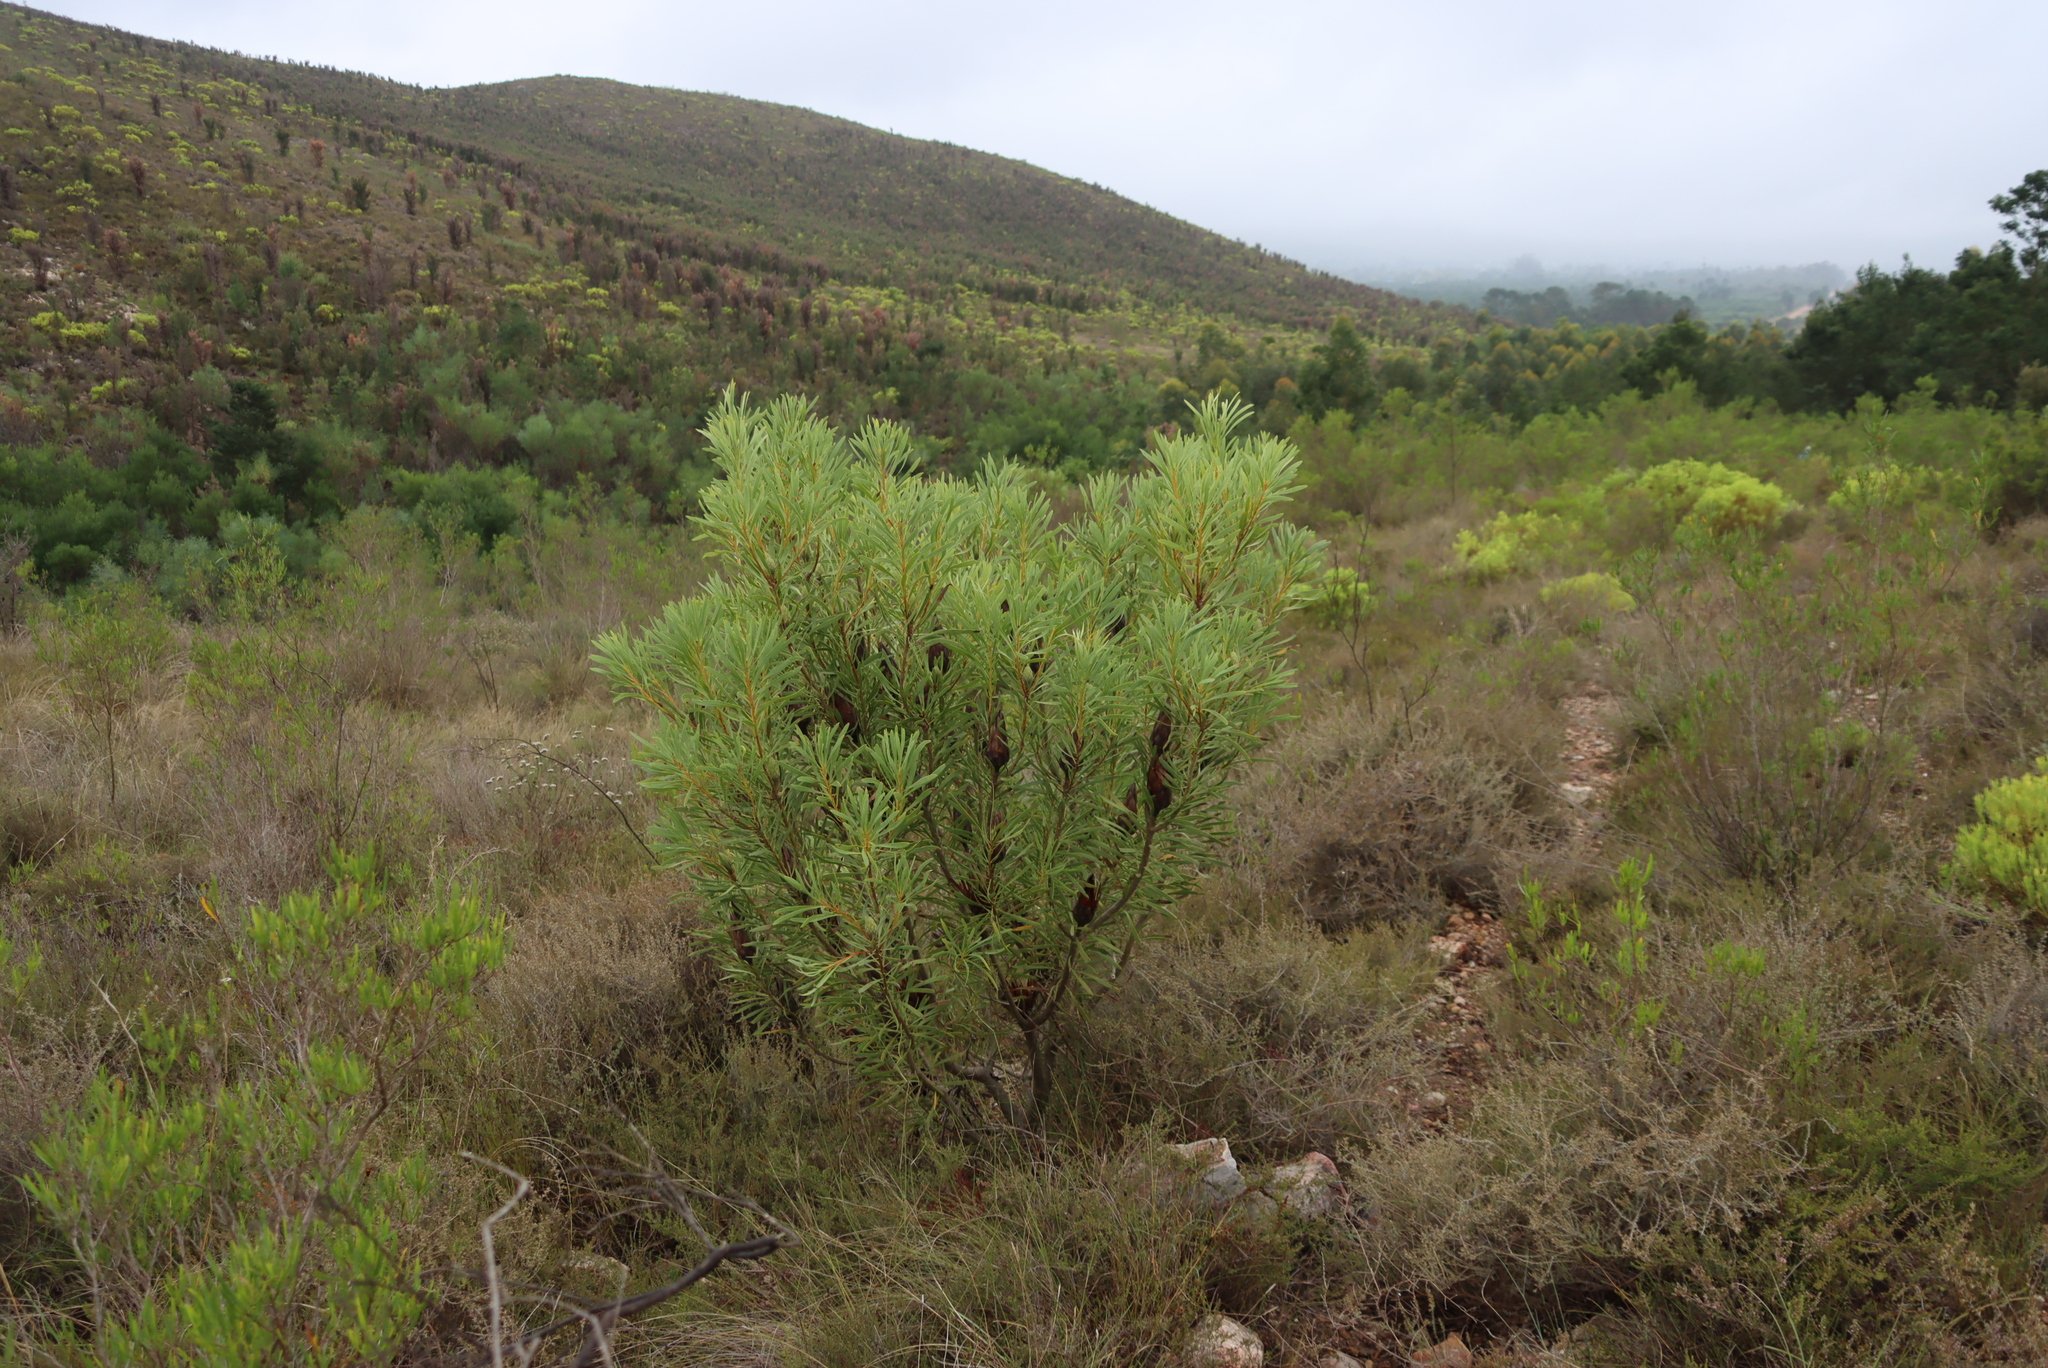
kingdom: Plantae
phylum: Tracheophyta
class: Magnoliopsida
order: Proteales
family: Proteaceae
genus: Protea
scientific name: Protea repens
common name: Sugarbush
